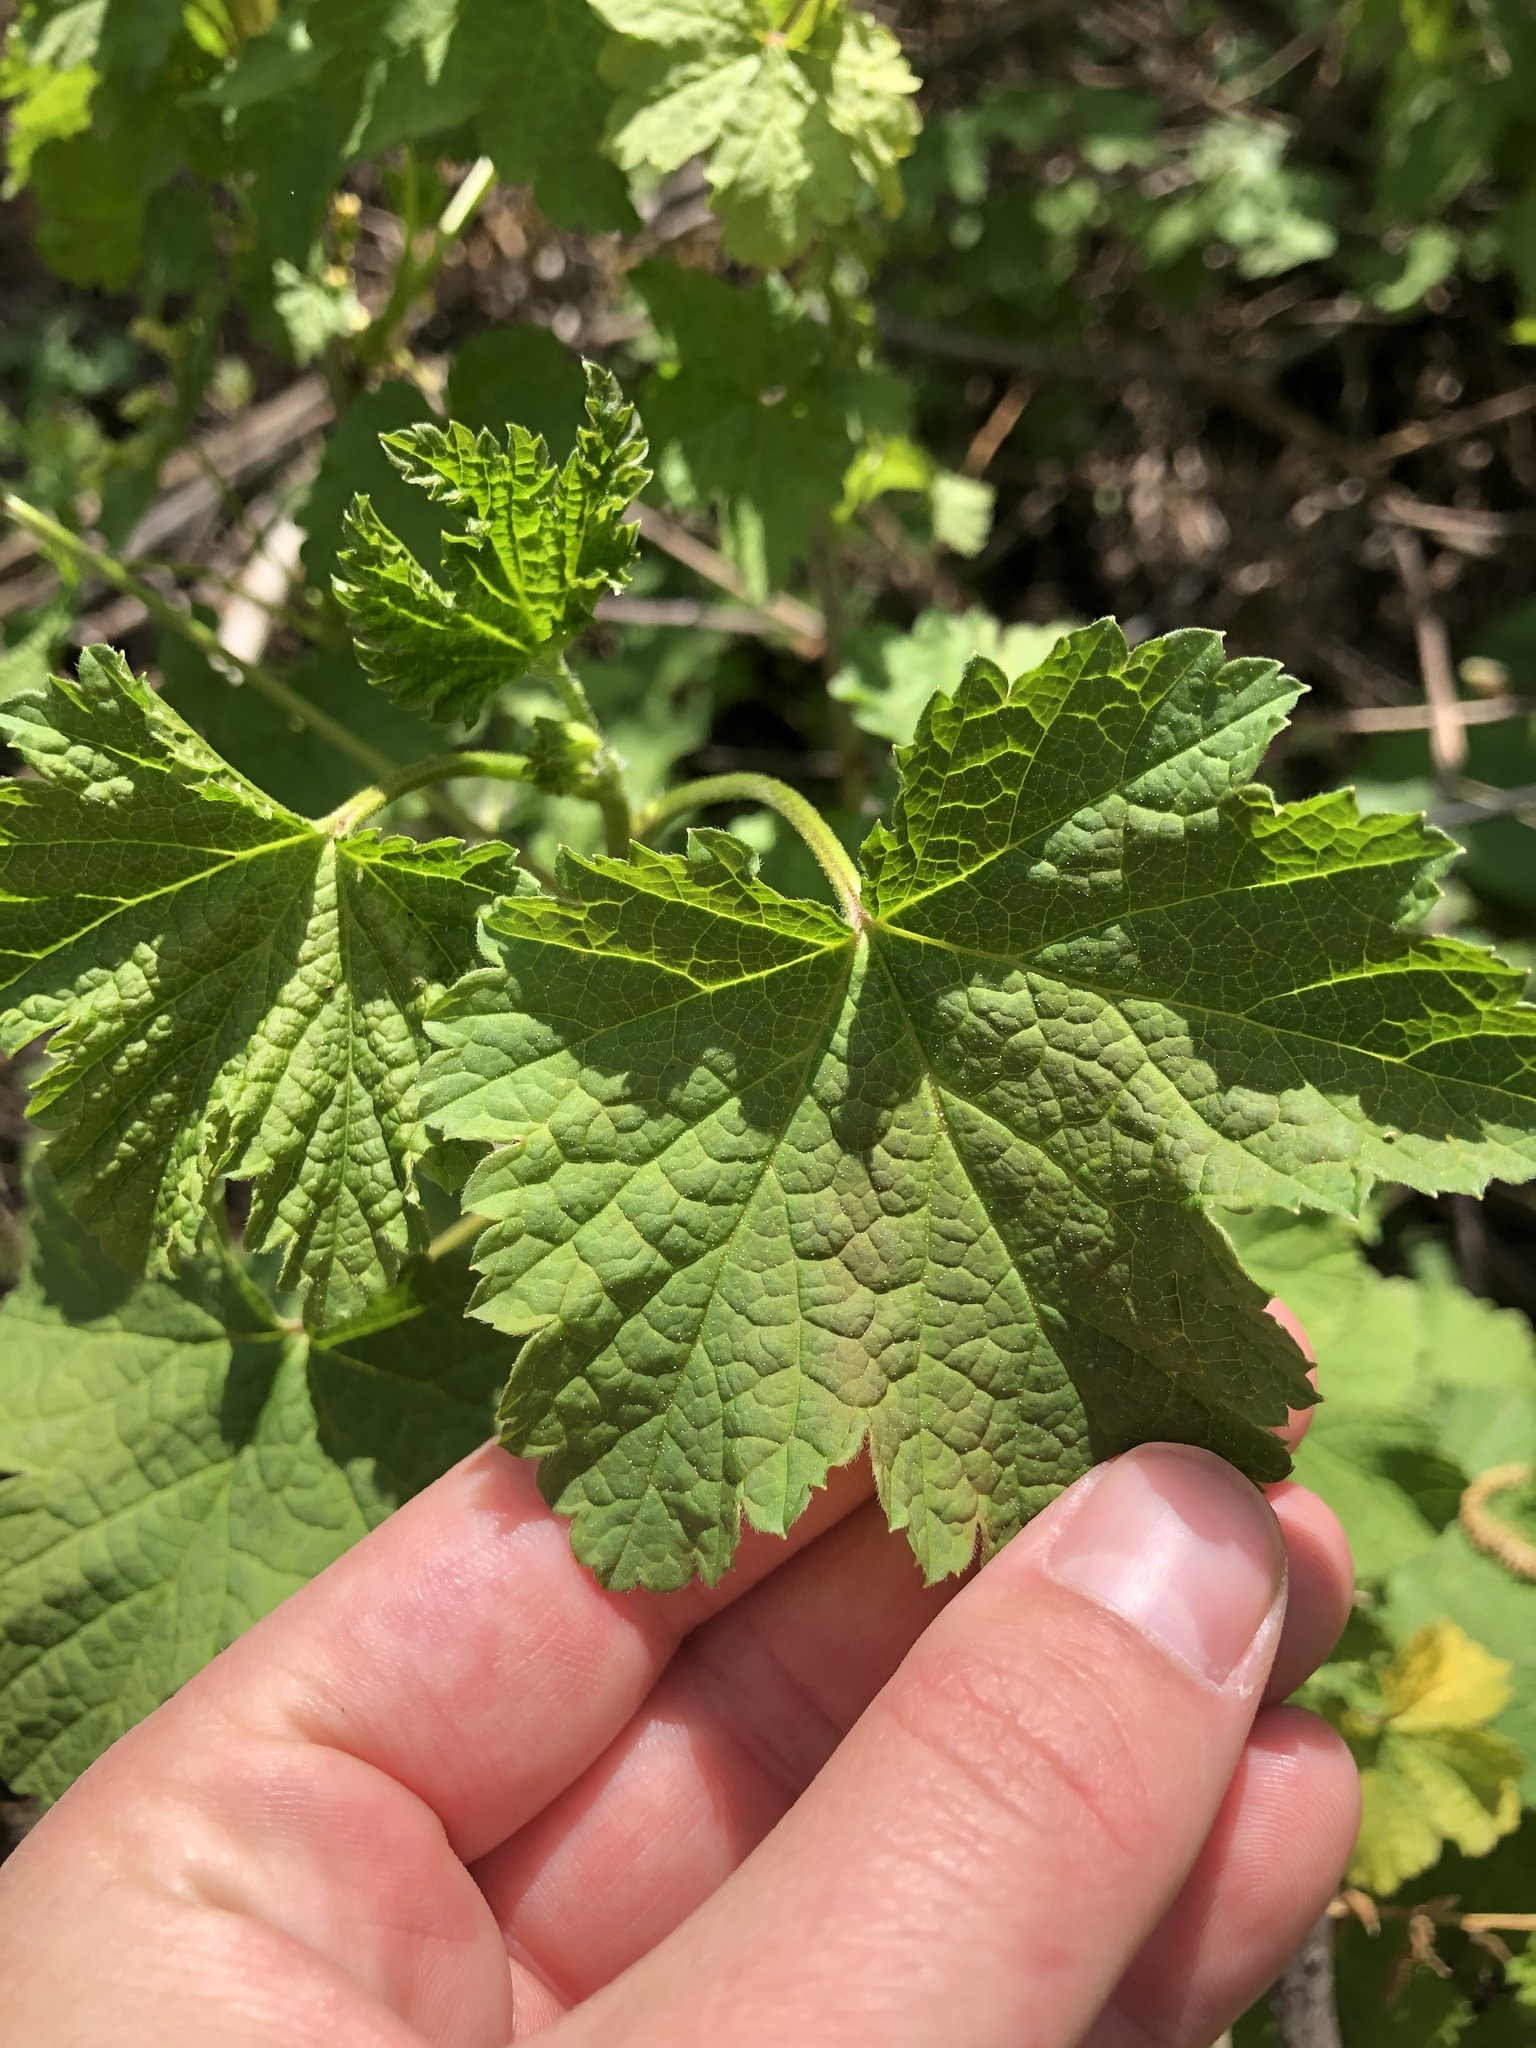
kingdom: Plantae
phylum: Tracheophyta
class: Magnoliopsida
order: Saxifragales
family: Grossulariaceae
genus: Ribes
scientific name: Ribes rubrum
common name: Red currant
